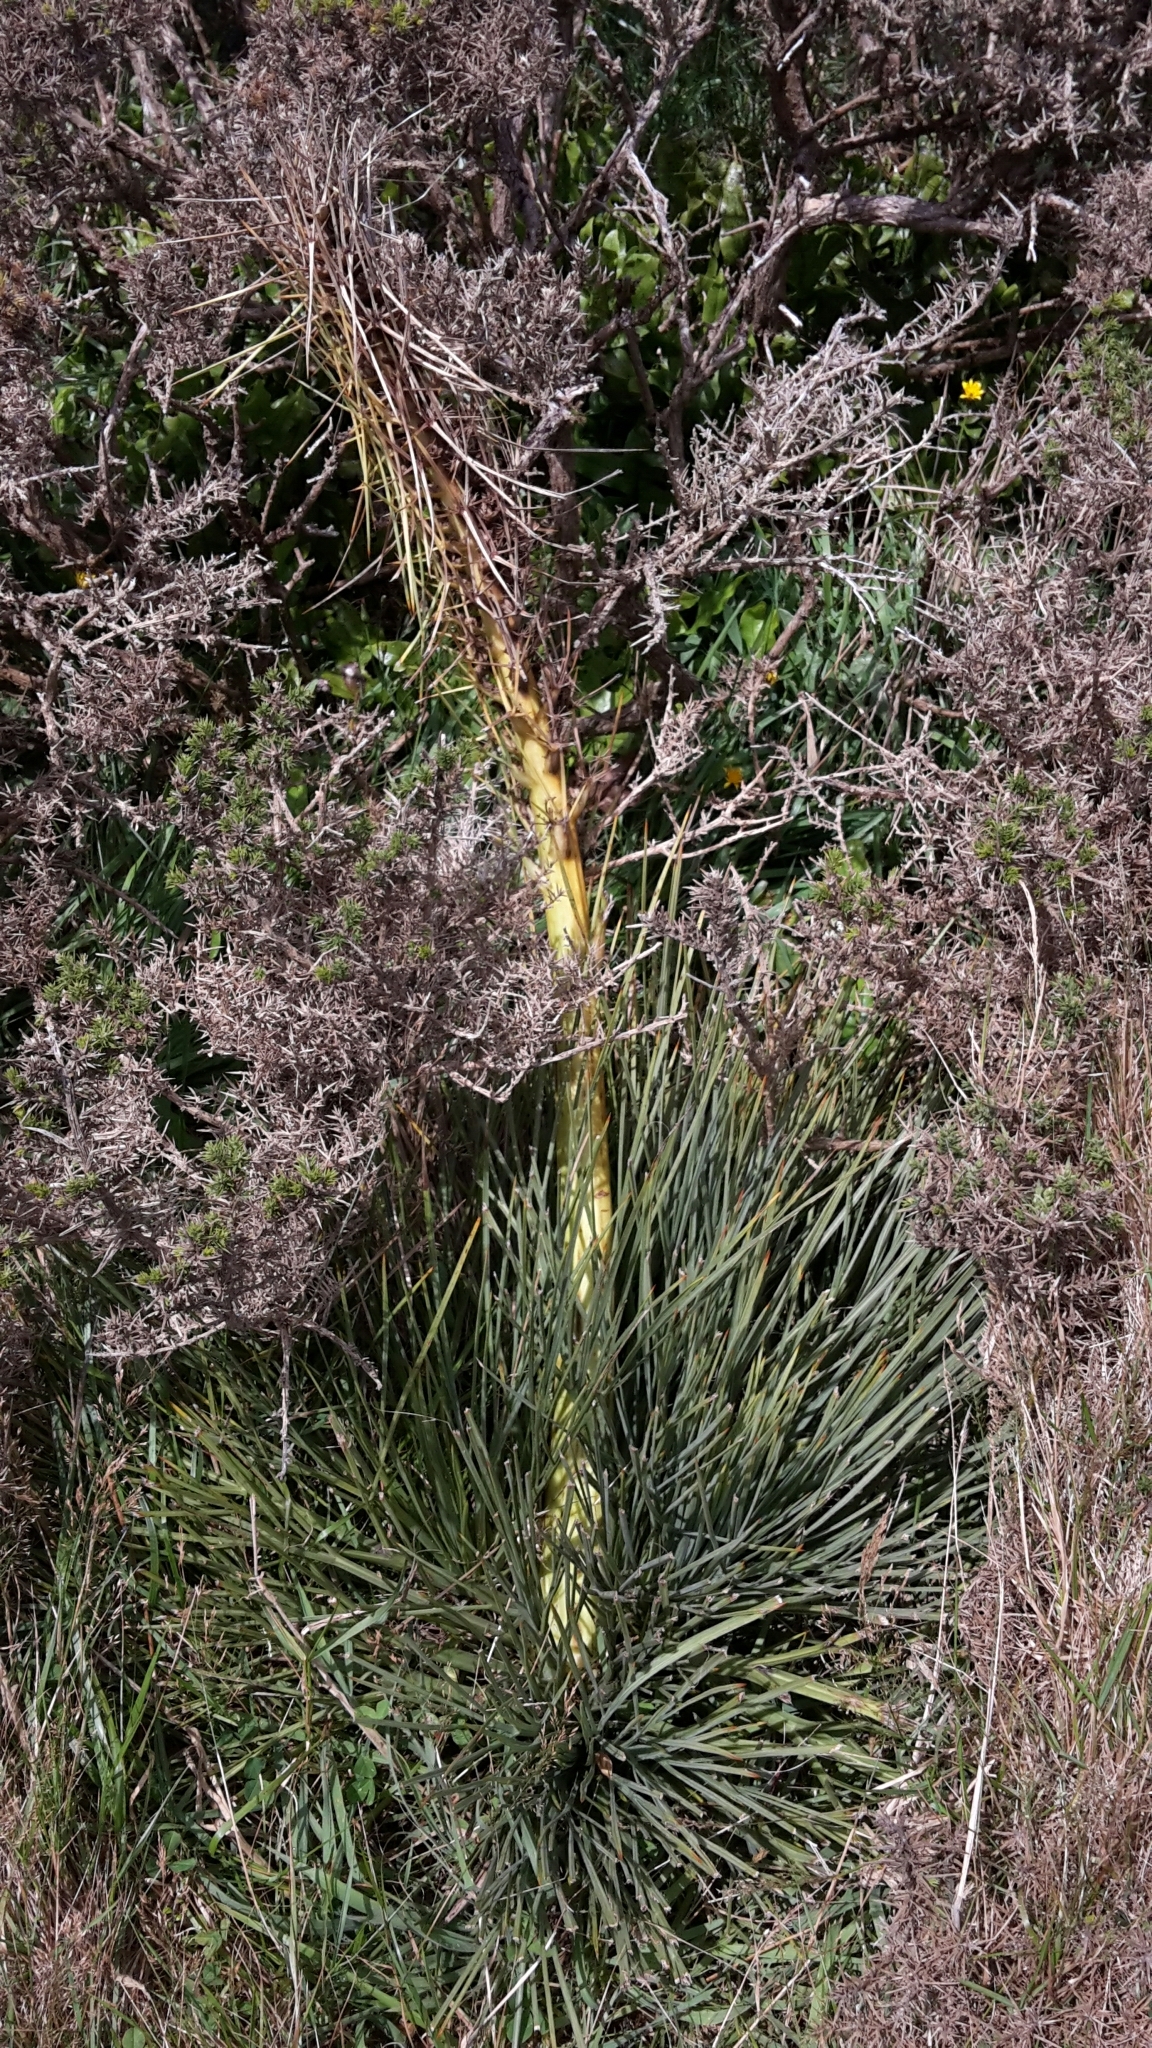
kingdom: Plantae
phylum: Tracheophyta
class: Magnoliopsida
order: Apiales
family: Apiaceae
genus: Aciphylla
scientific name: Aciphylla squarrosa
